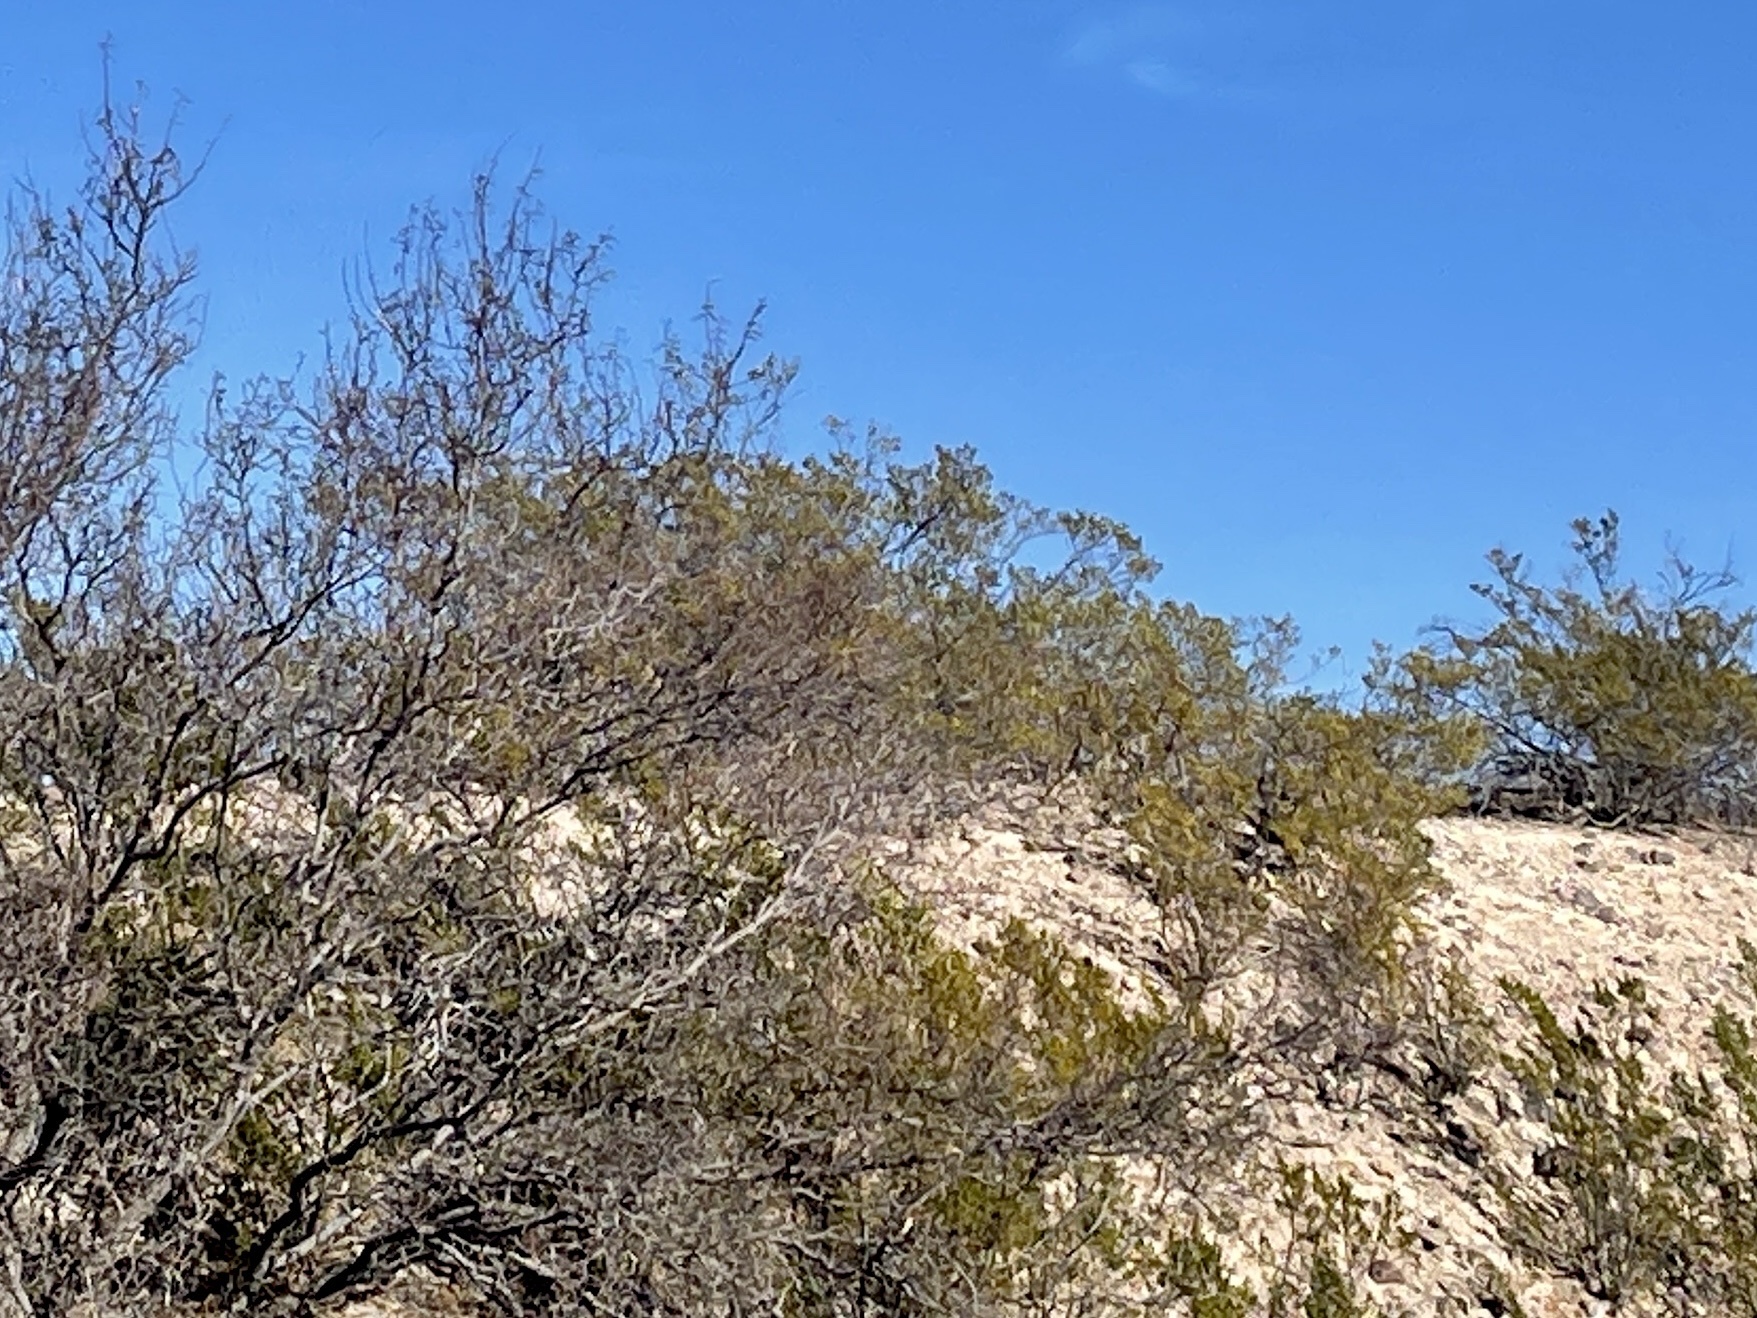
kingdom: Plantae
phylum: Tracheophyta
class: Magnoliopsida
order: Zygophyllales
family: Zygophyllaceae
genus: Larrea
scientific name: Larrea tridentata
